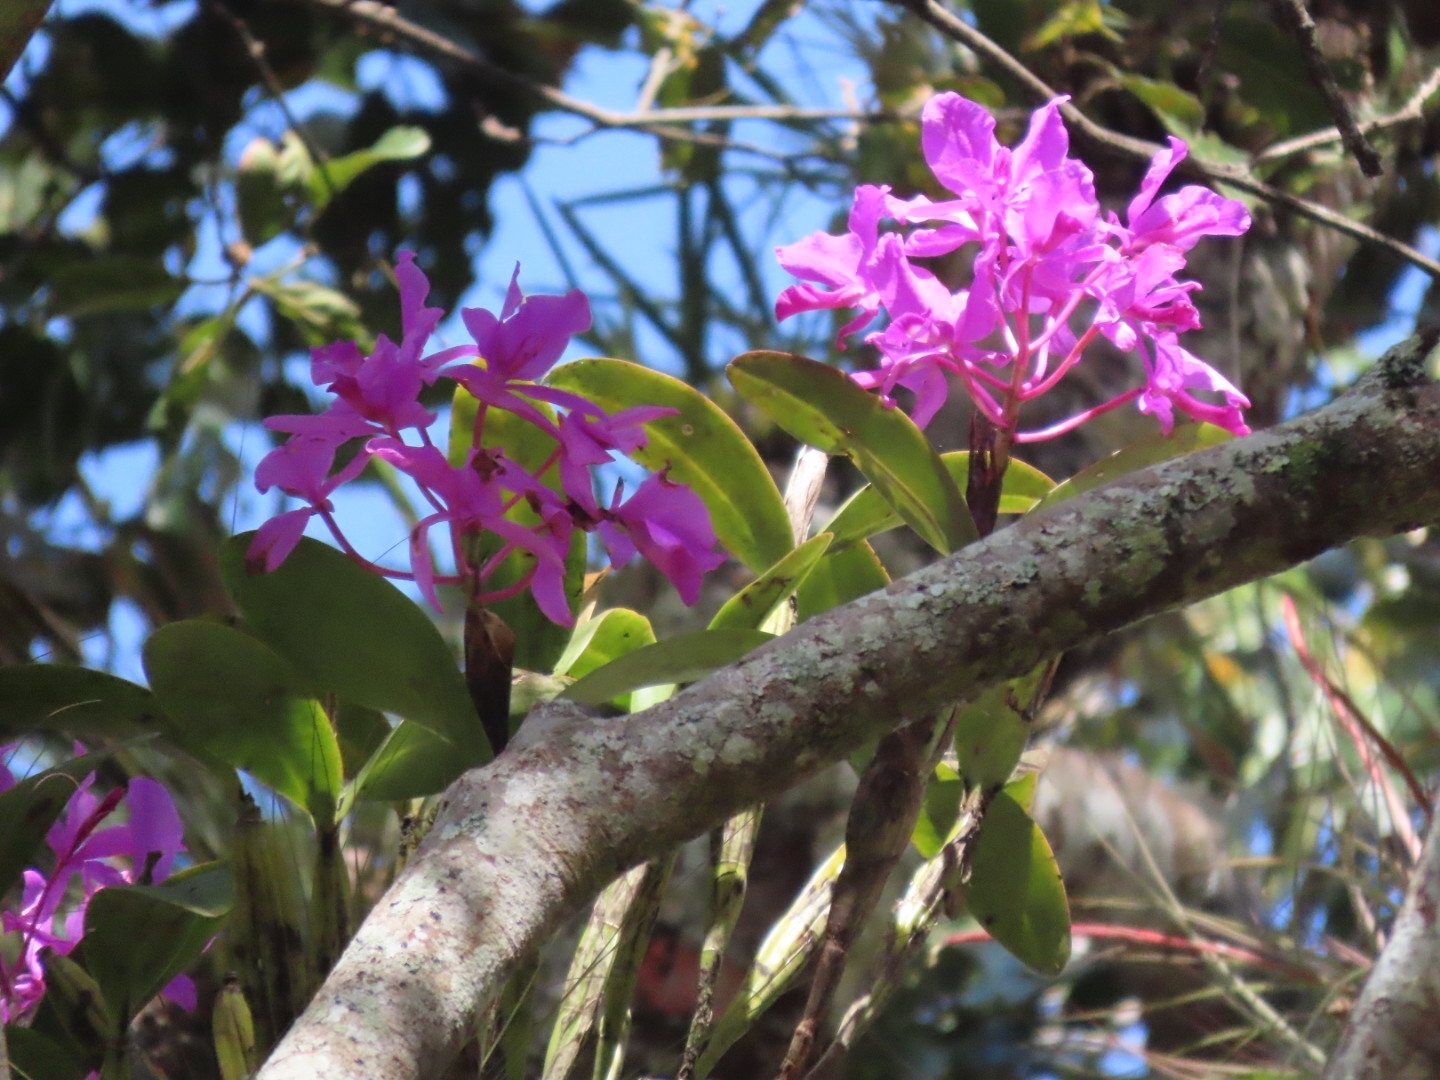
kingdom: Plantae
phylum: Tracheophyta
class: Liliopsida
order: Asparagales
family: Orchidaceae
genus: Guarianthe
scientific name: Guarianthe skinneri
